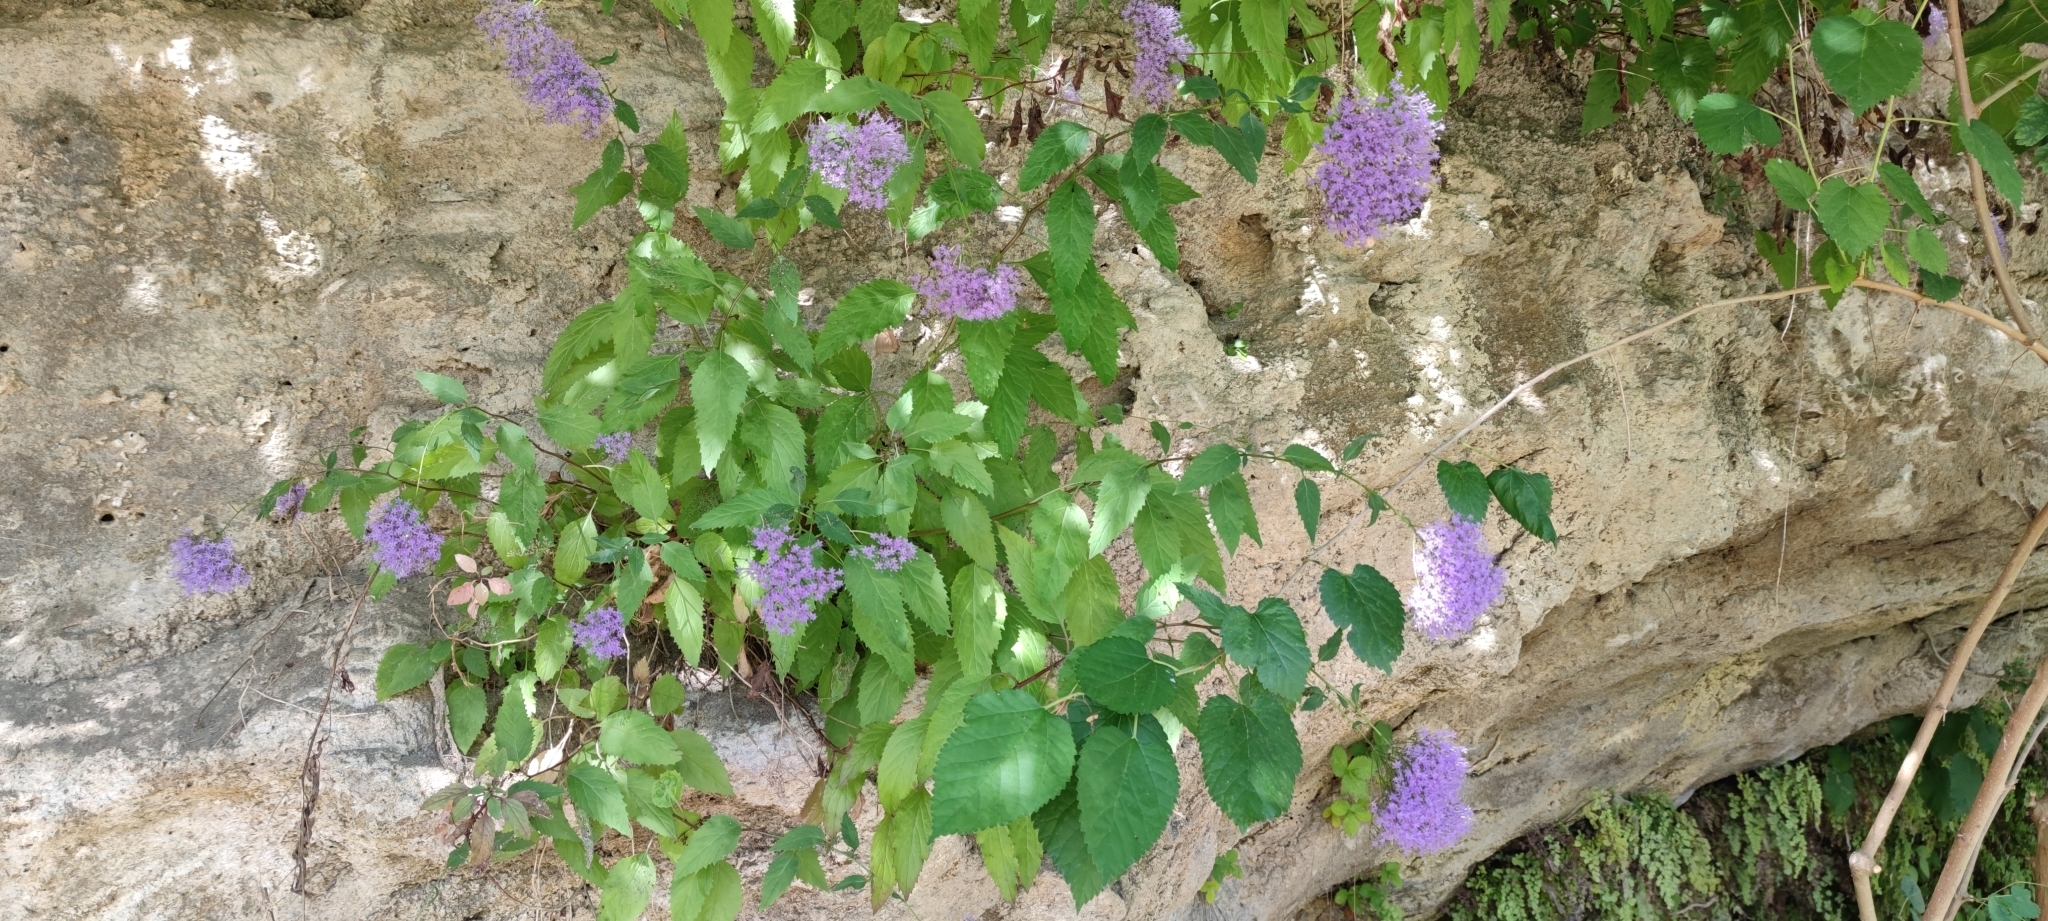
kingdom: Plantae
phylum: Tracheophyta
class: Magnoliopsida
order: Asterales
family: Campanulaceae
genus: Trachelium
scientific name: Trachelium caeruleum
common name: Throatwort
